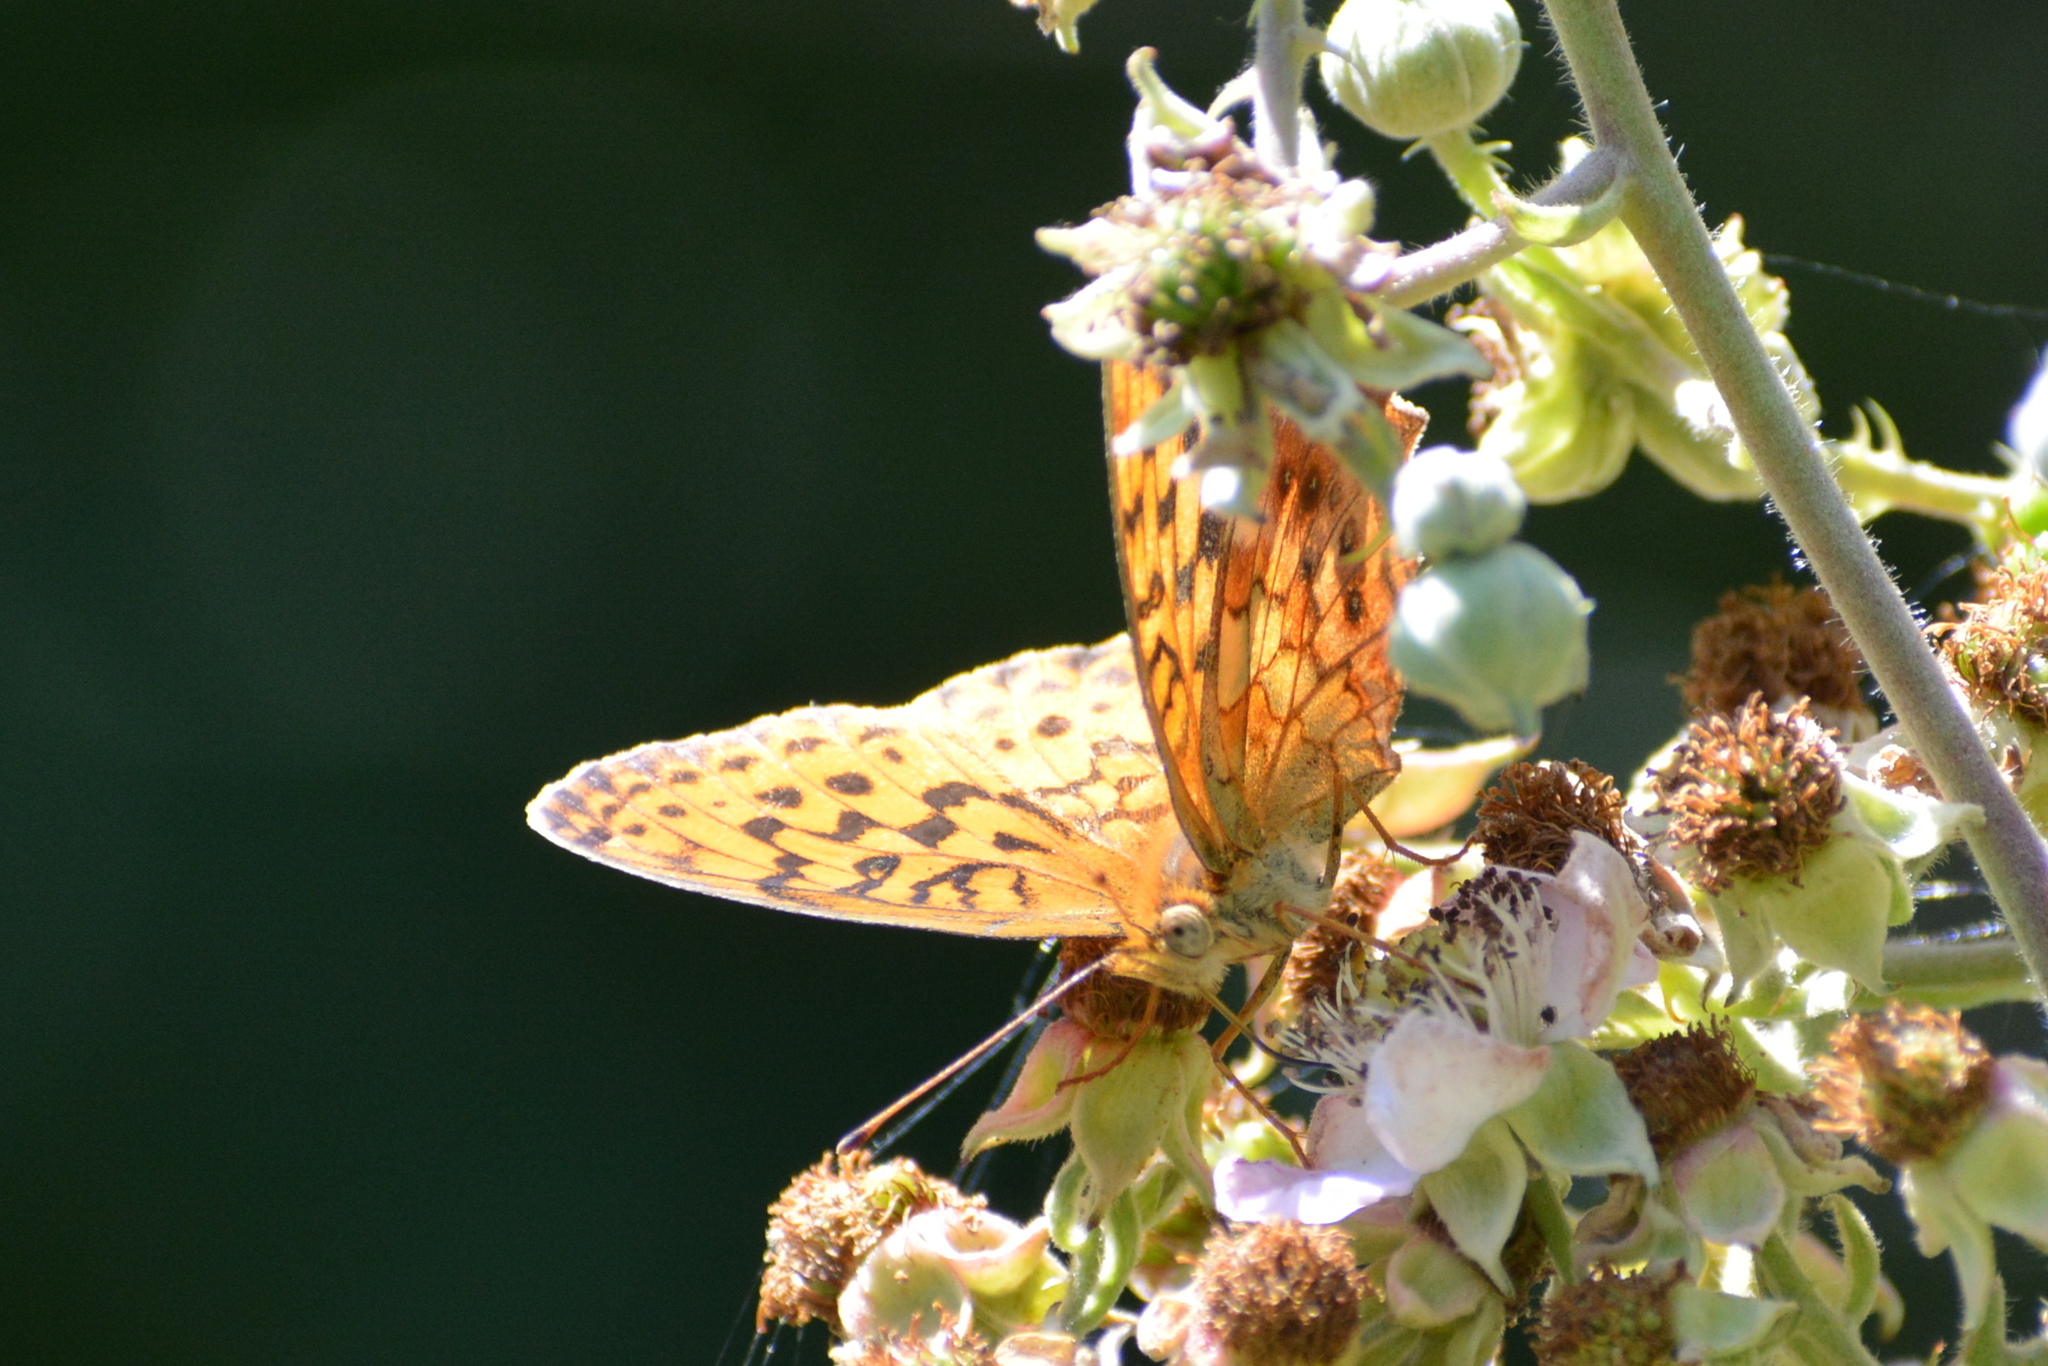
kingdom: Animalia
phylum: Arthropoda
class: Insecta
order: Lepidoptera
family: Nymphalidae
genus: Brenthis
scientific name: Brenthis daphne
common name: Marbled fritillary
